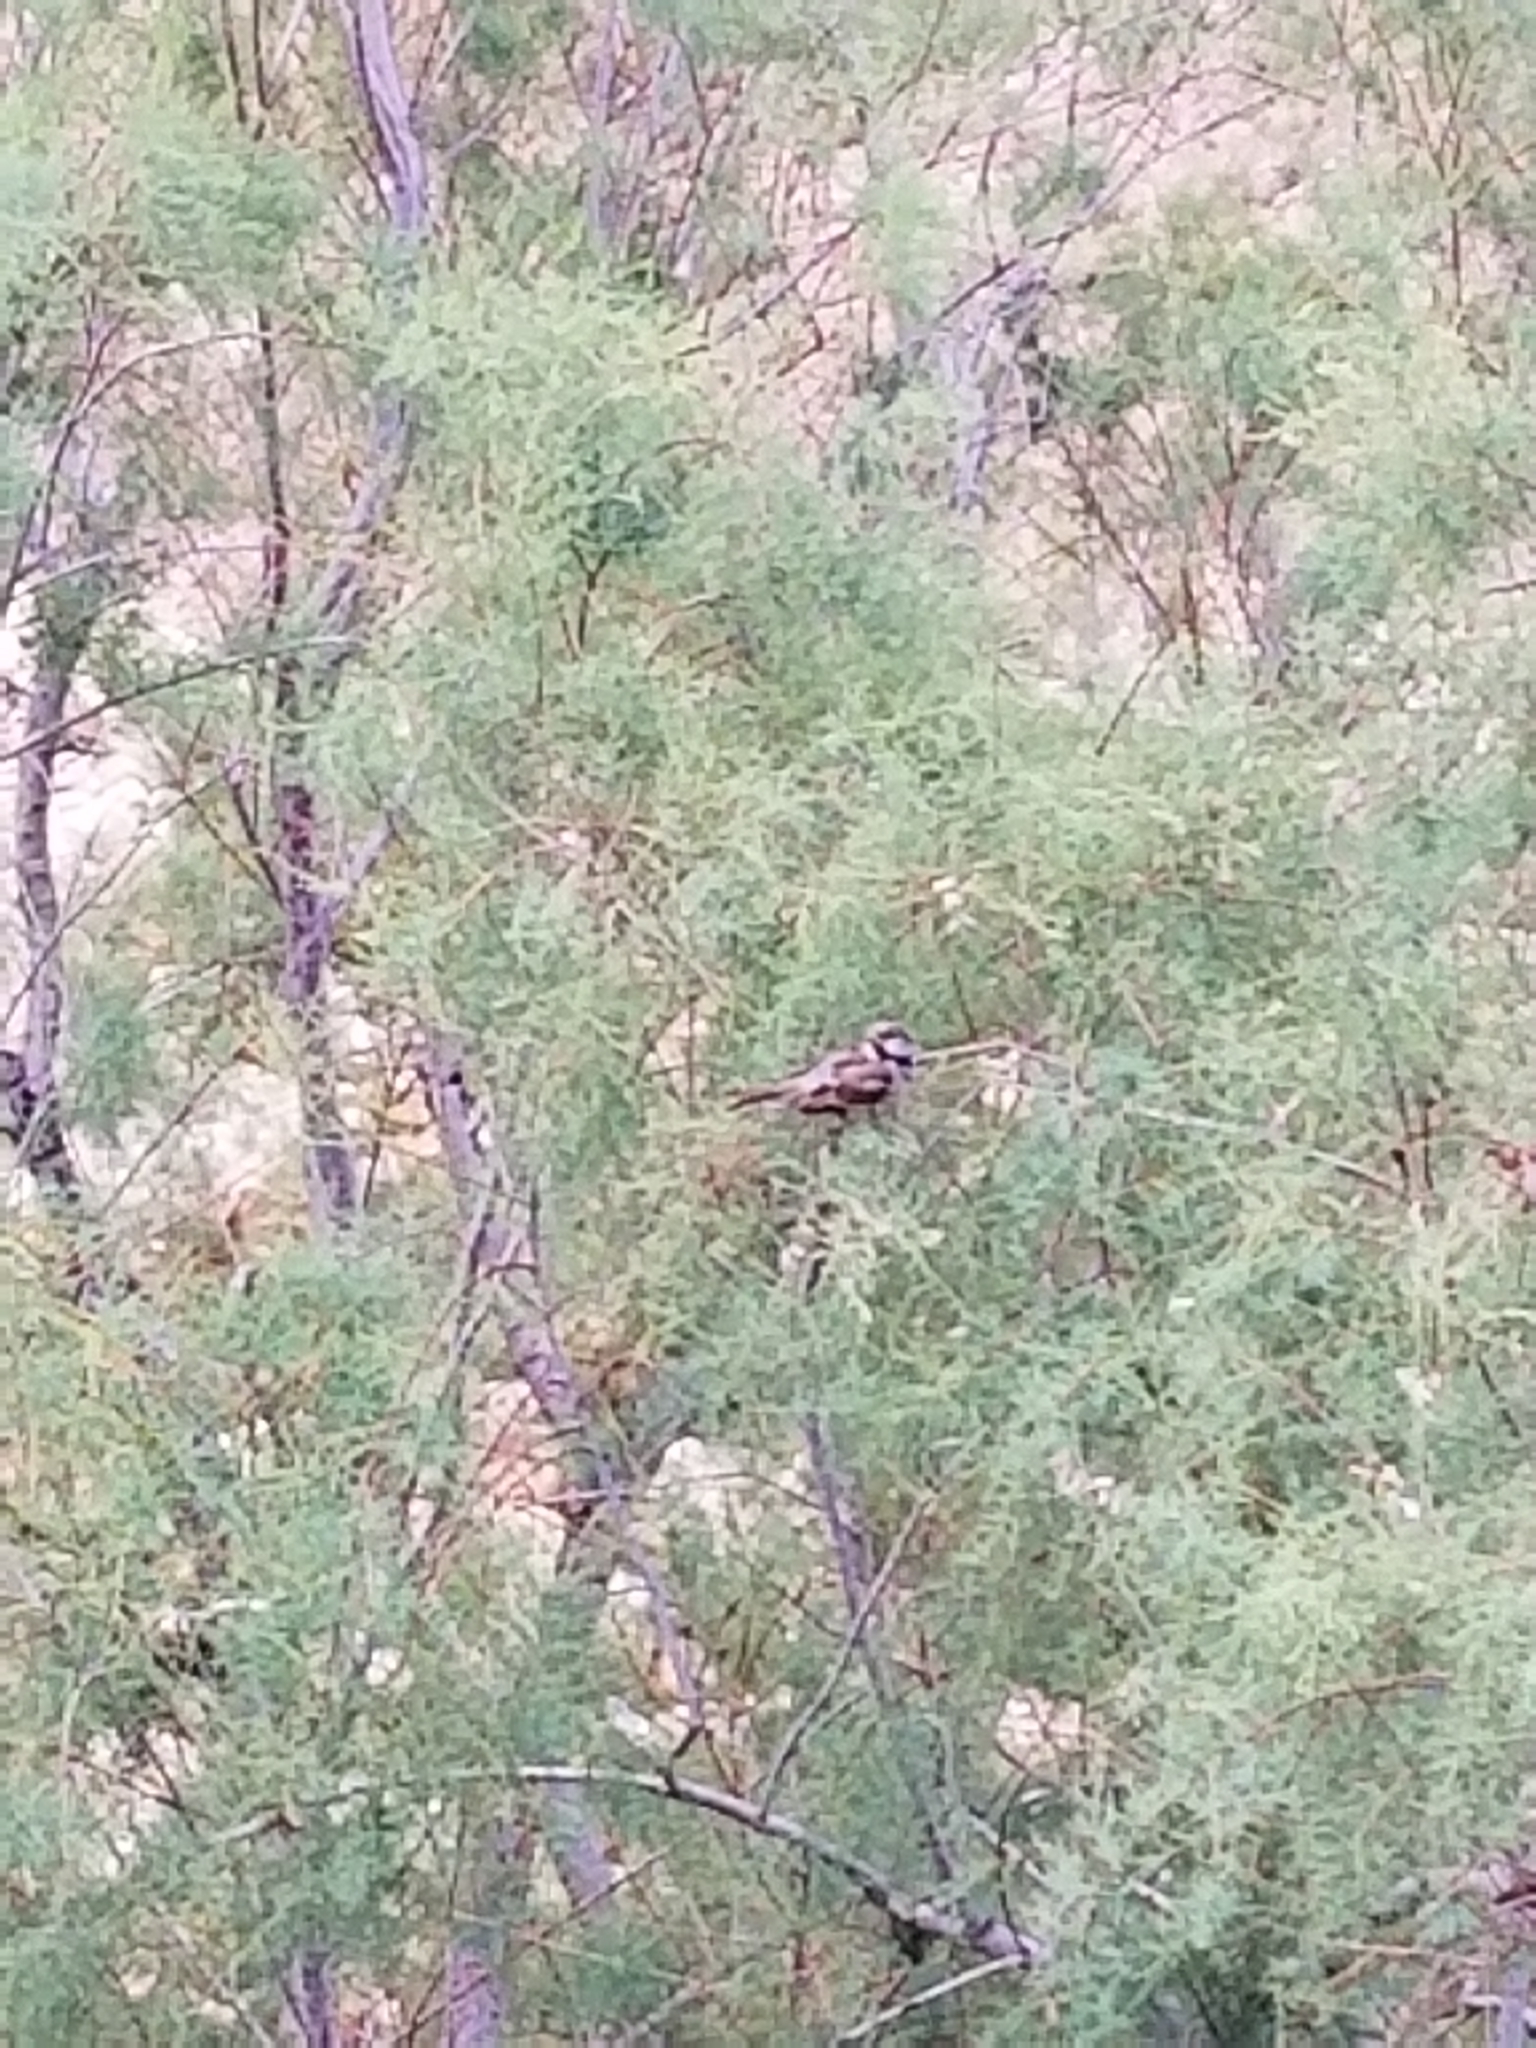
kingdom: Animalia
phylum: Chordata
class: Aves
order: Passeriformes
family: Passeridae
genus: Passer
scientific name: Passer domesticus
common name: House sparrow
